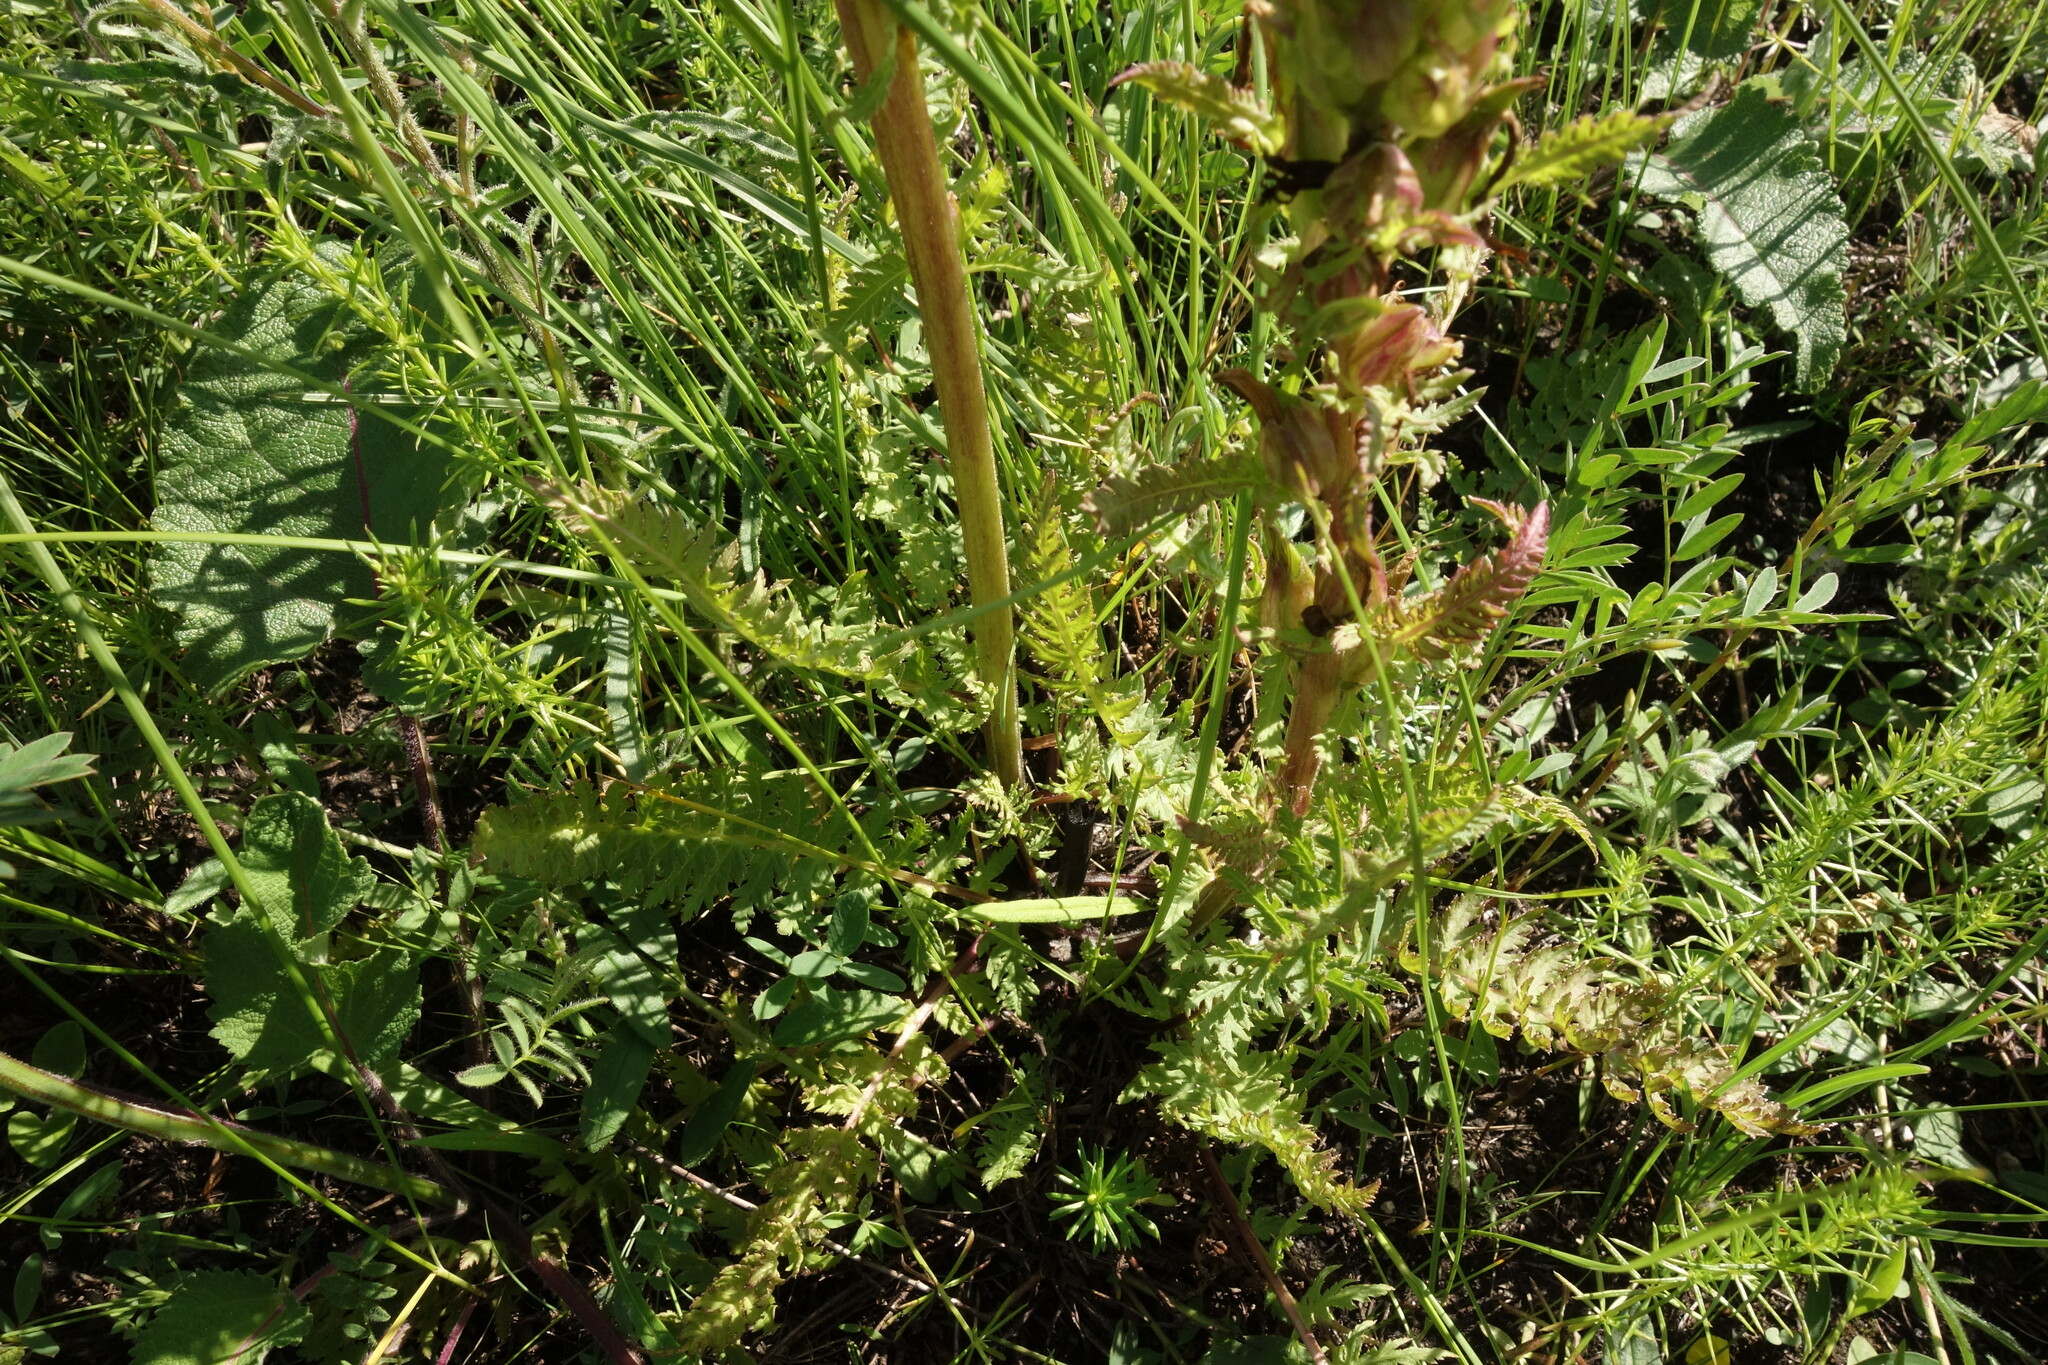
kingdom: Plantae
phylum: Tracheophyta
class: Magnoliopsida
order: Lamiales
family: Orobanchaceae
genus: Pedicularis
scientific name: Pedicularis kaufmannii
